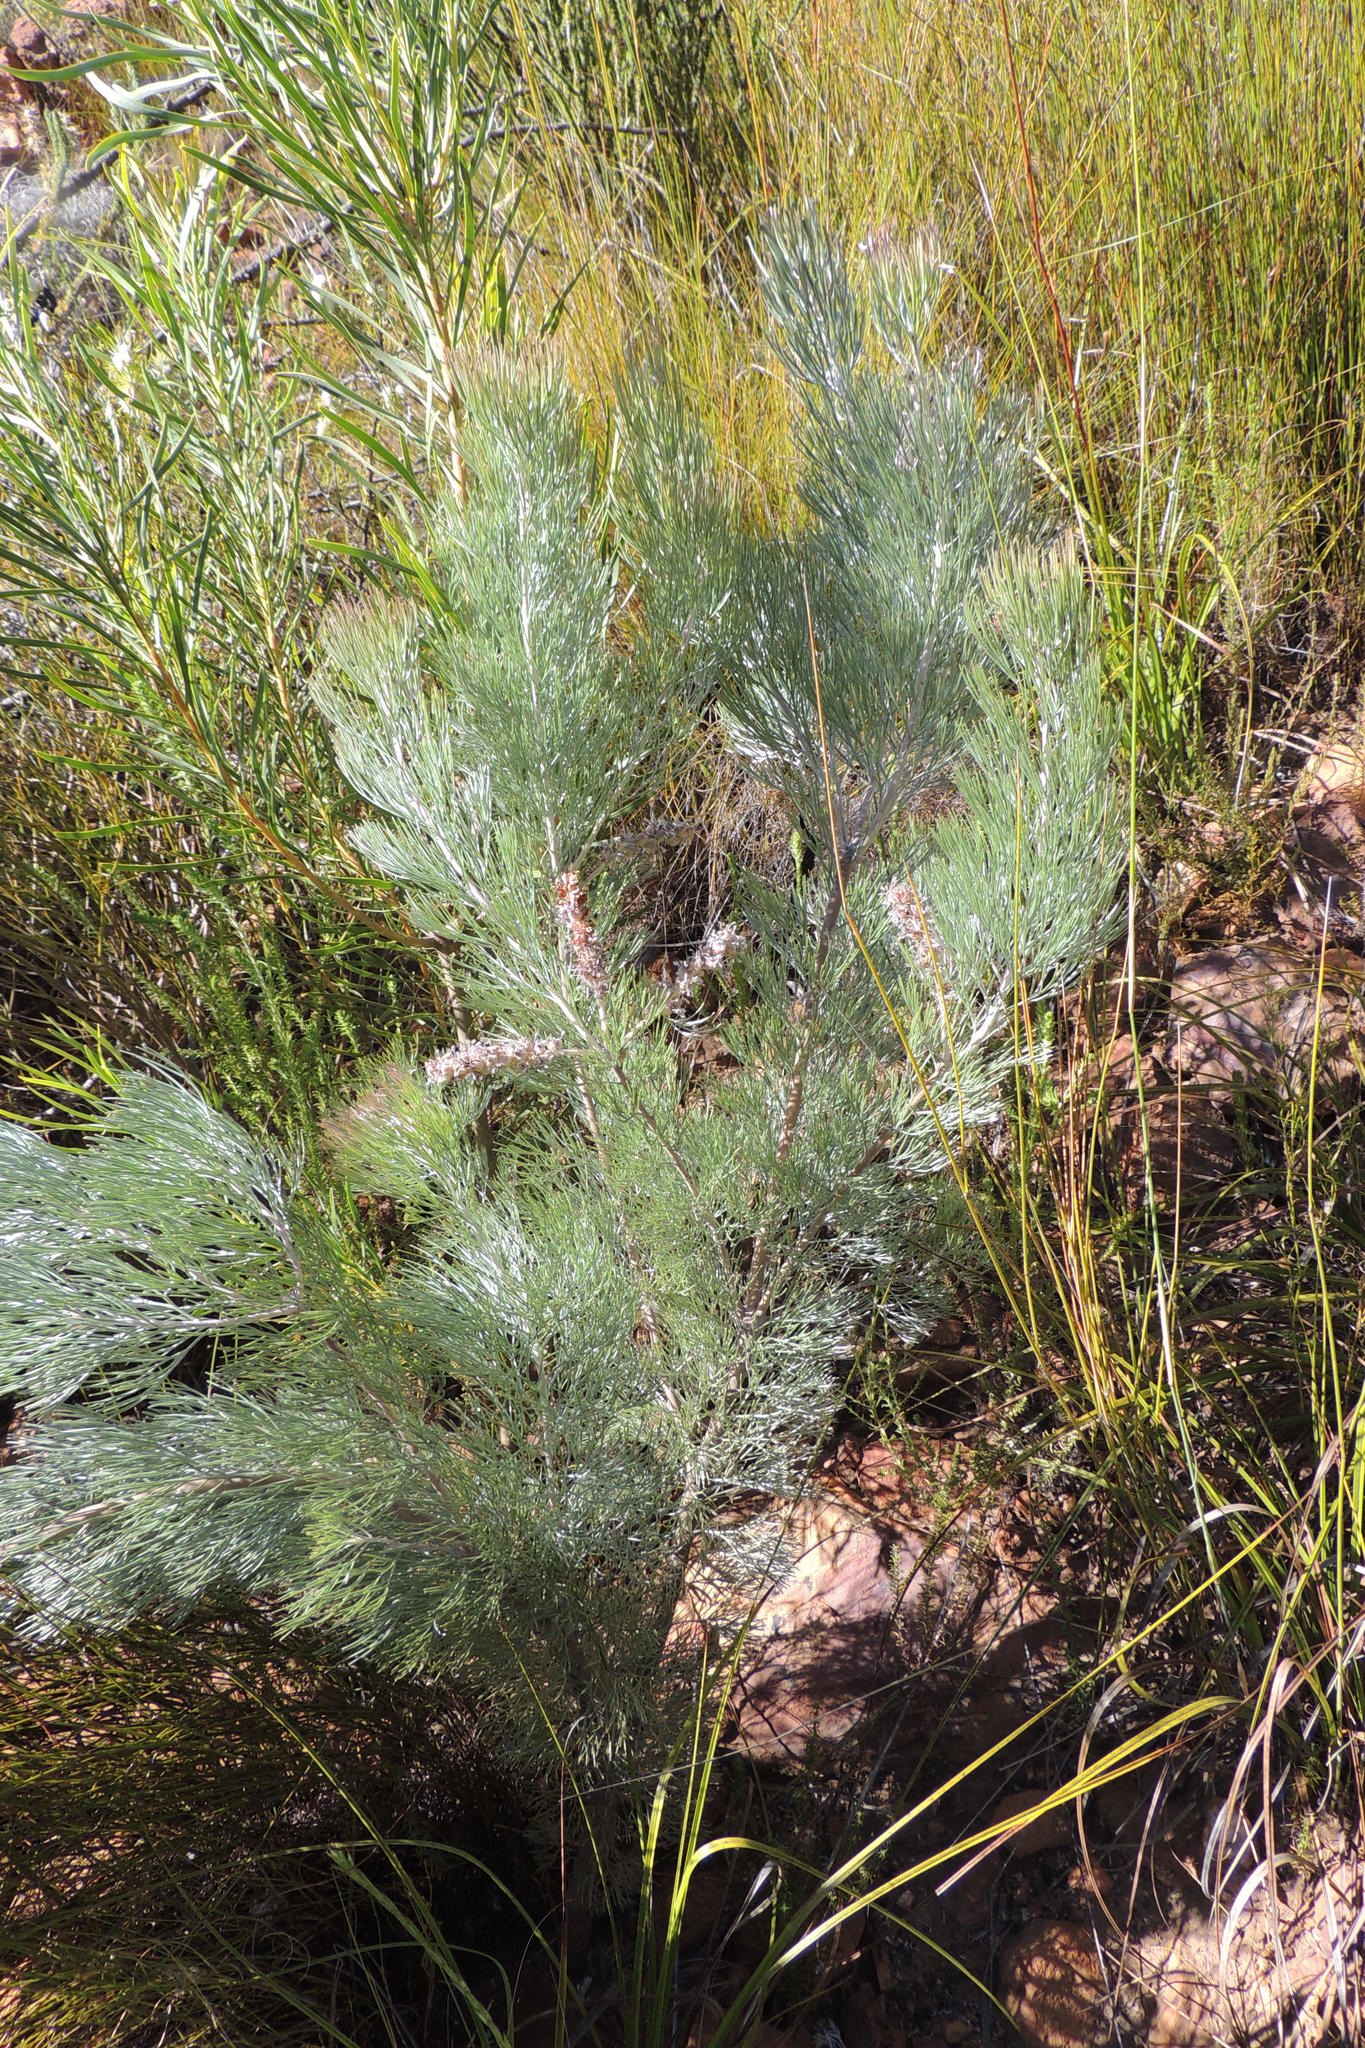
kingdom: Plantae
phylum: Tracheophyta
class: Magnoliopsida
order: Proteales
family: Proteaceae
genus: Paranomus
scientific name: Paranomus candicans
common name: Powder sceptre
